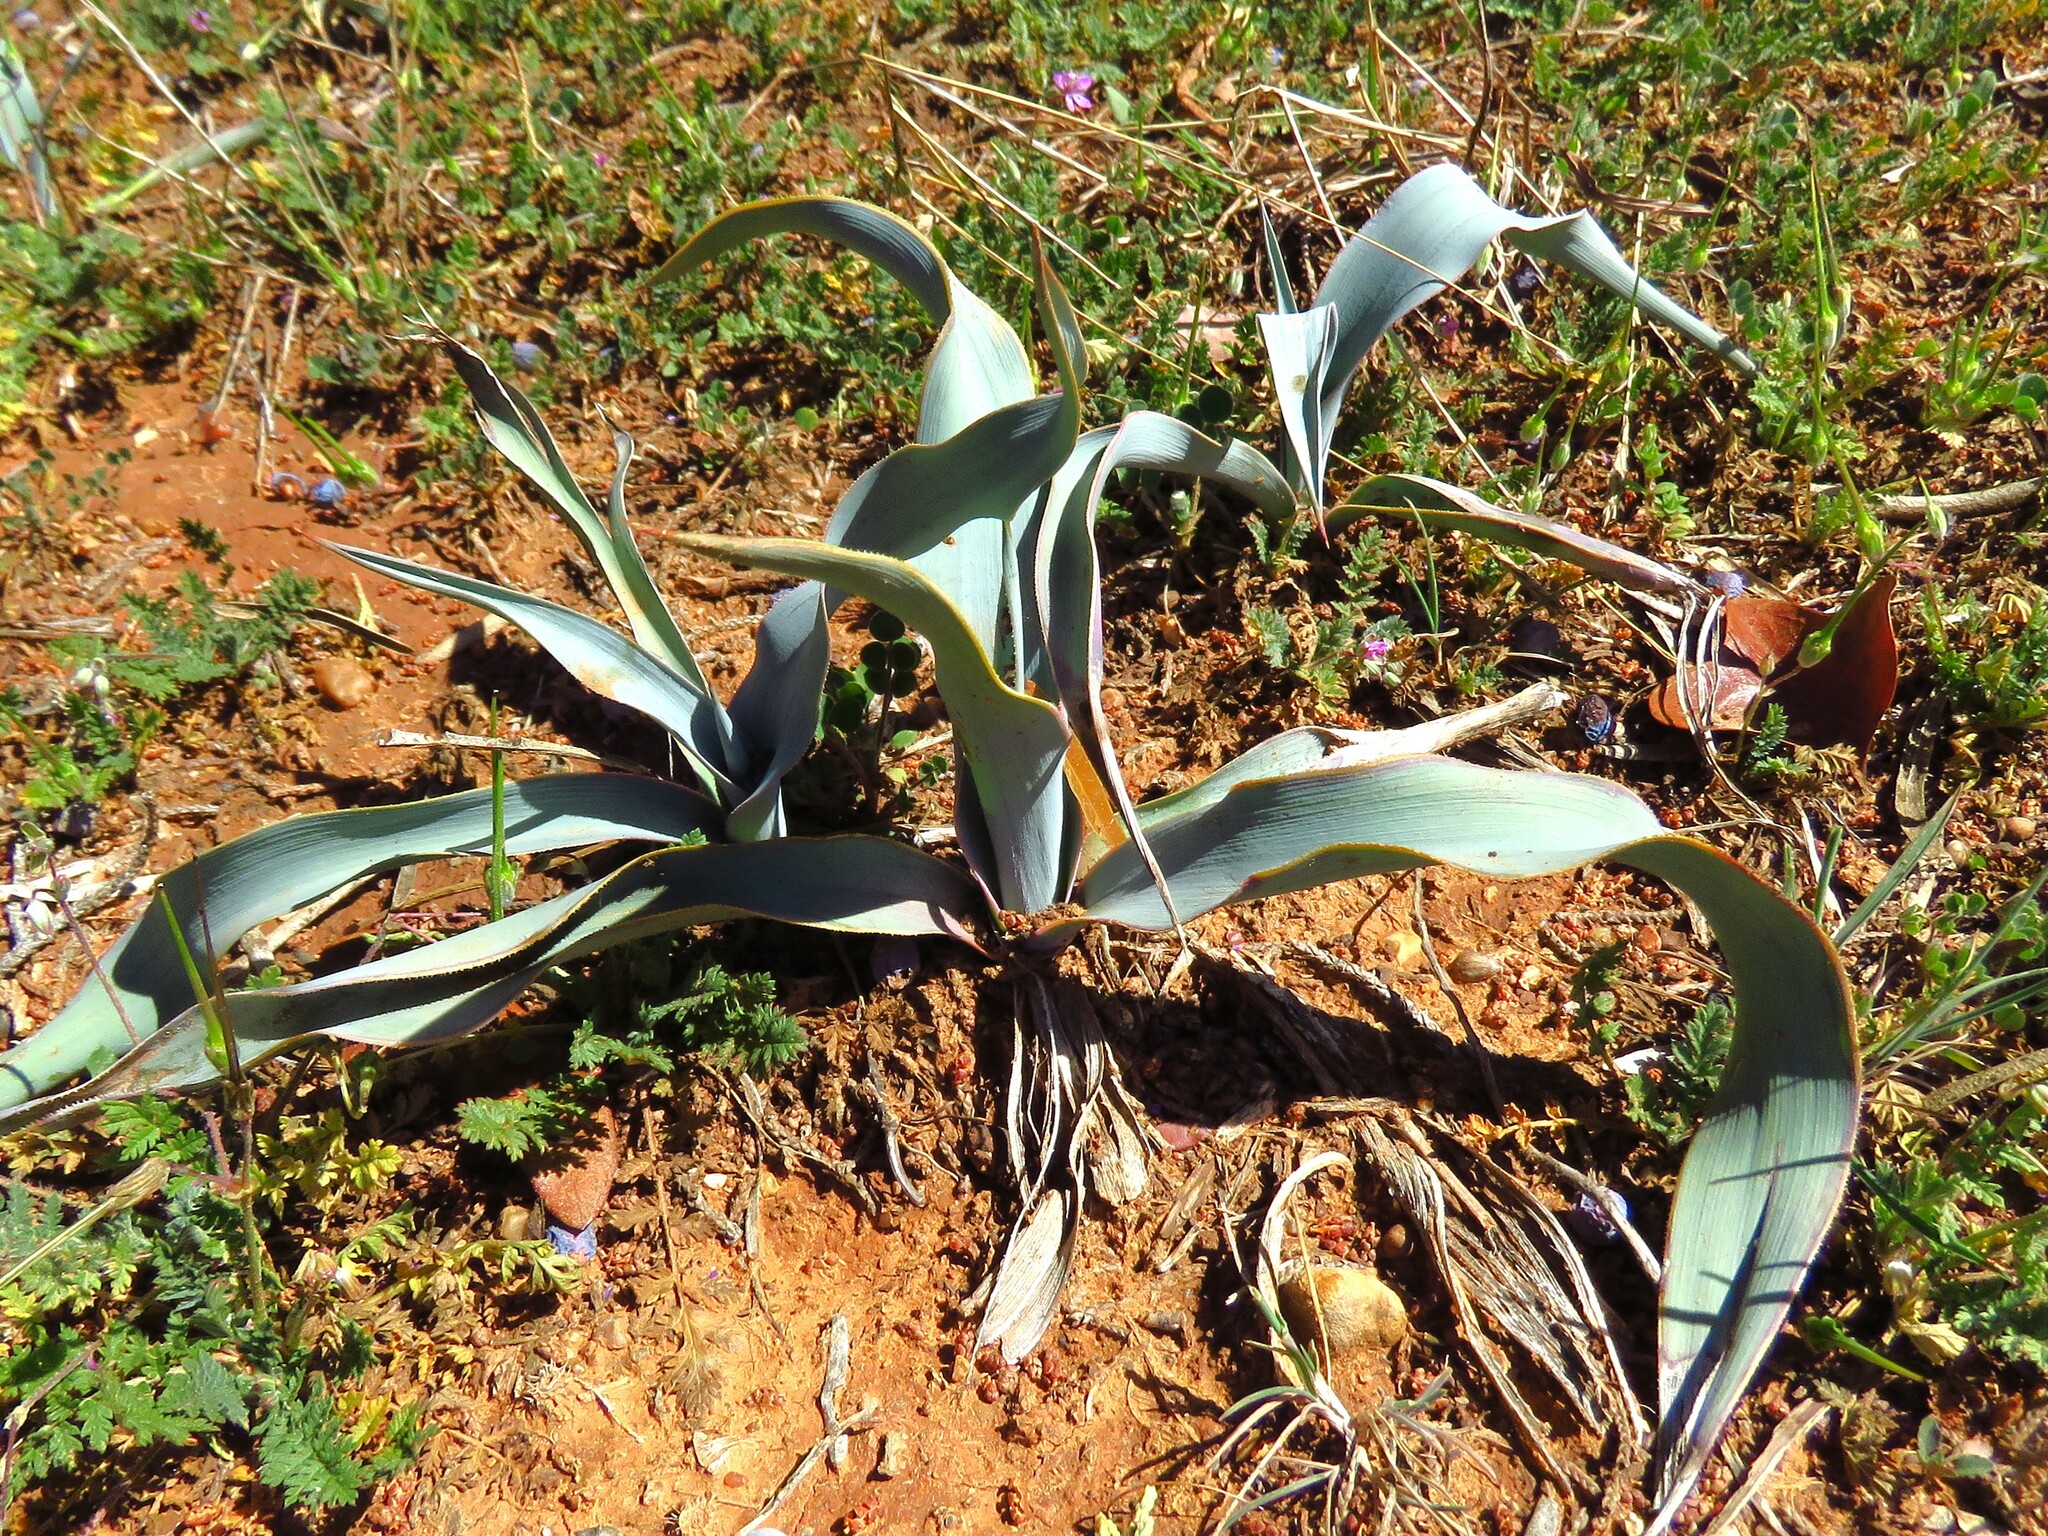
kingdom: Plantae
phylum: Tracheophyta
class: Liliopsida
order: Asparagales
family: Asparagaceae
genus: Yucca
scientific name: Yucca pallida
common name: Pale leaf yucca
